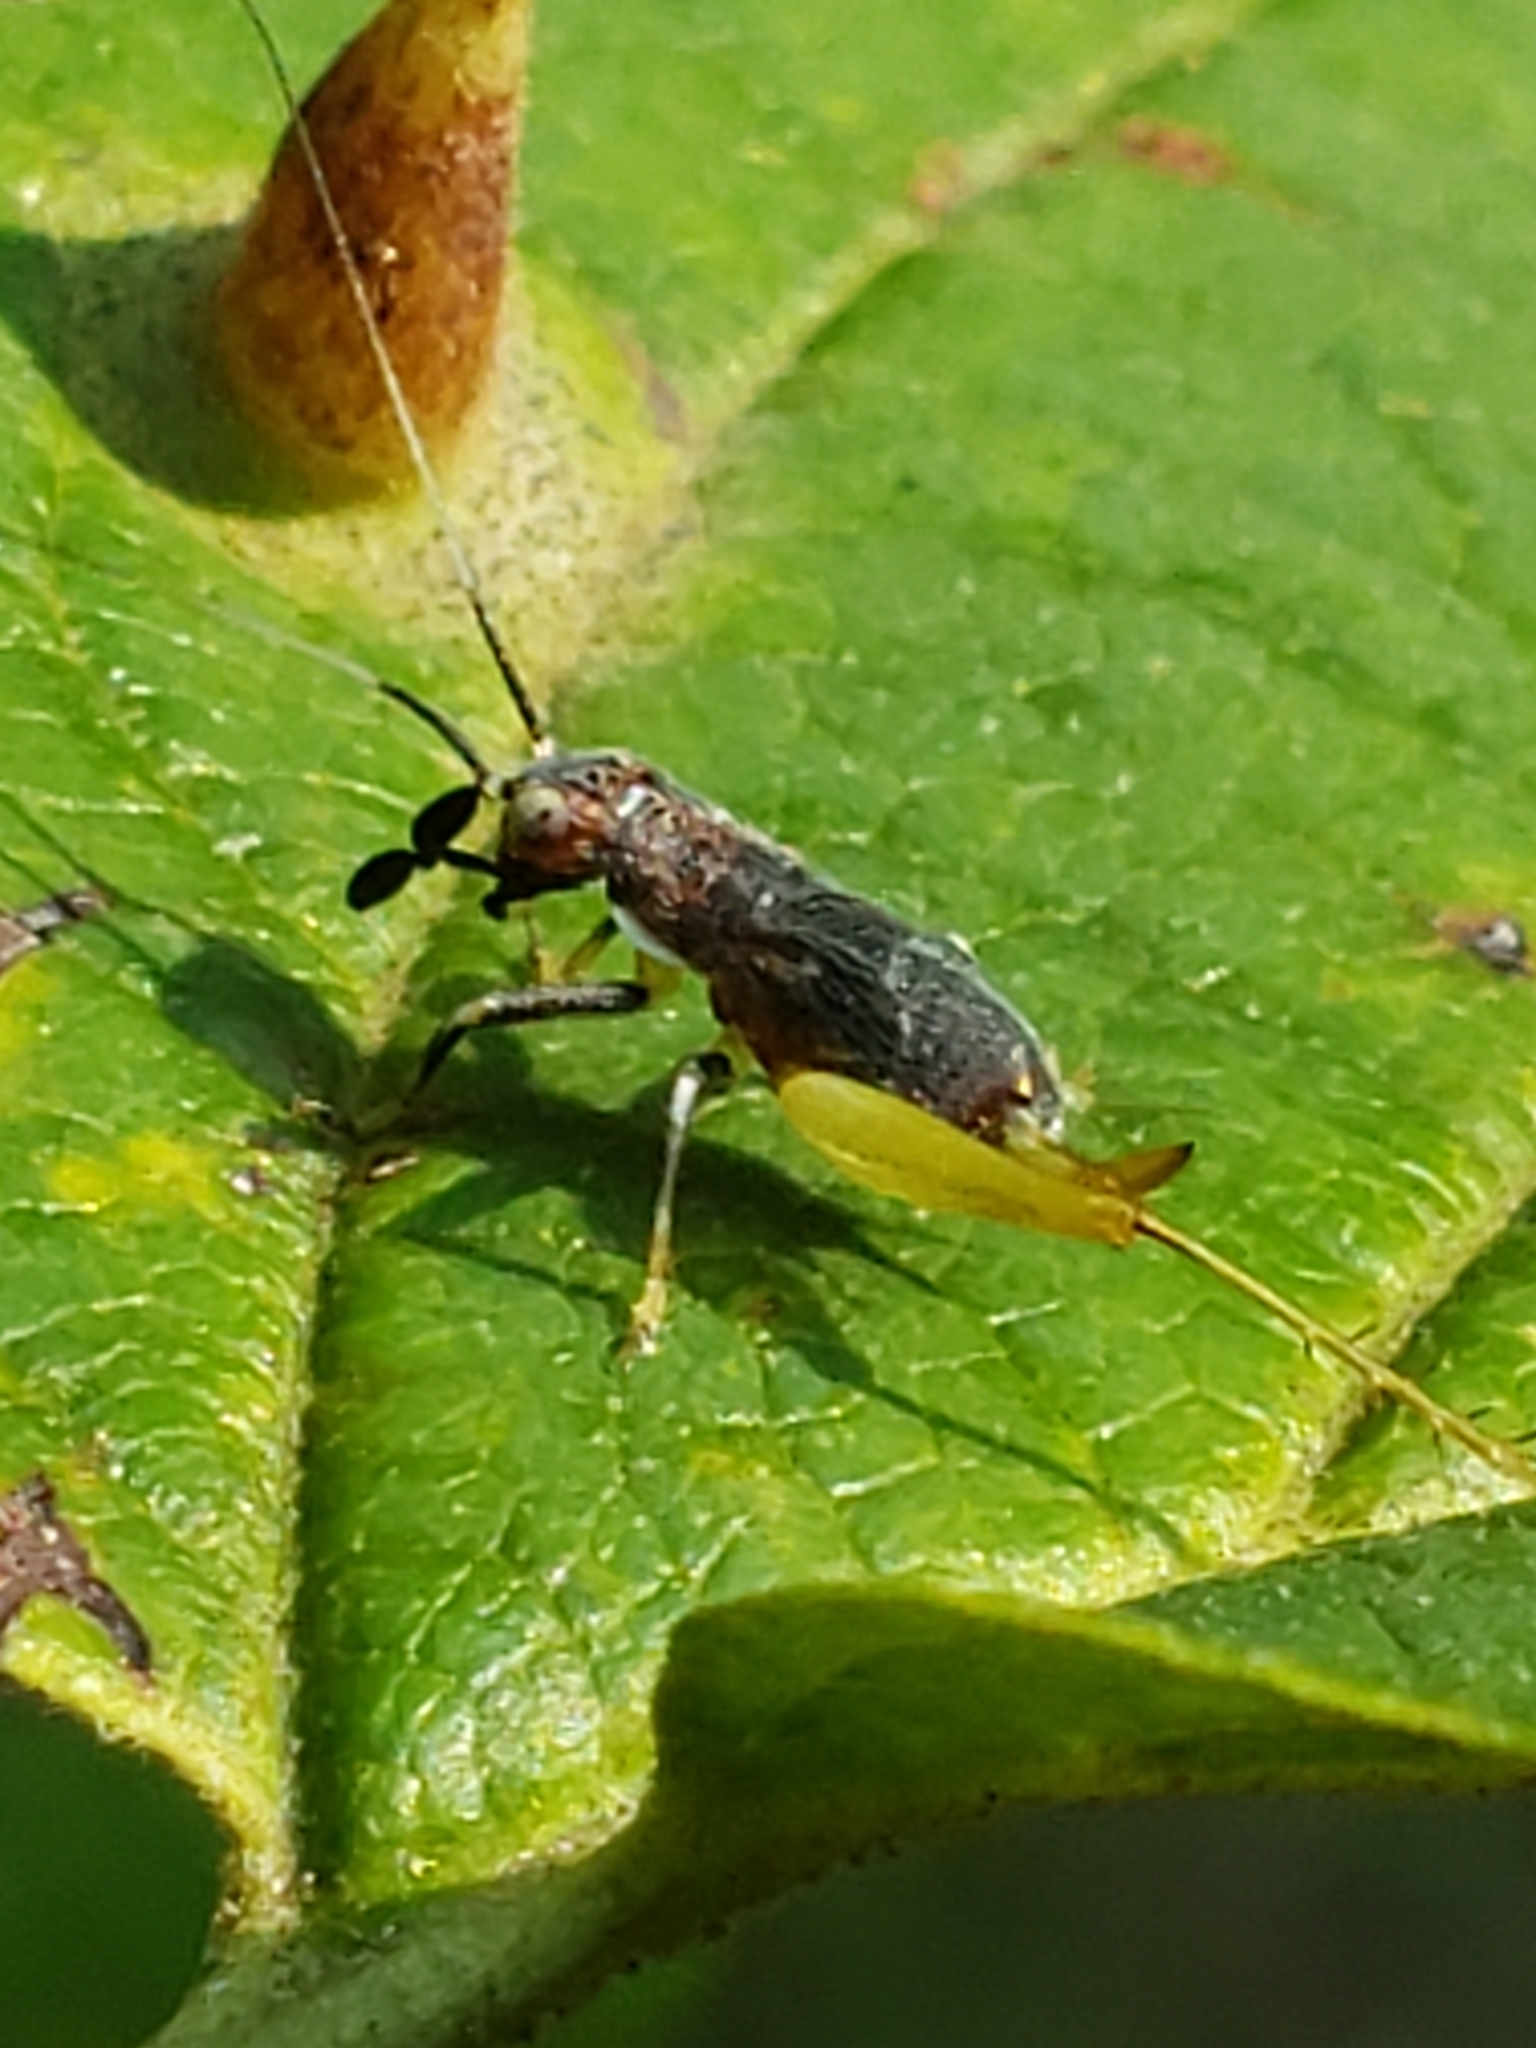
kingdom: Animalia
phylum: Arthropoda
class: Insecta
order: Orthoptera
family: Trigonidiidae
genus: Phyllopalpus
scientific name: Phyllopalpus pulchellus
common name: Handsome trig
